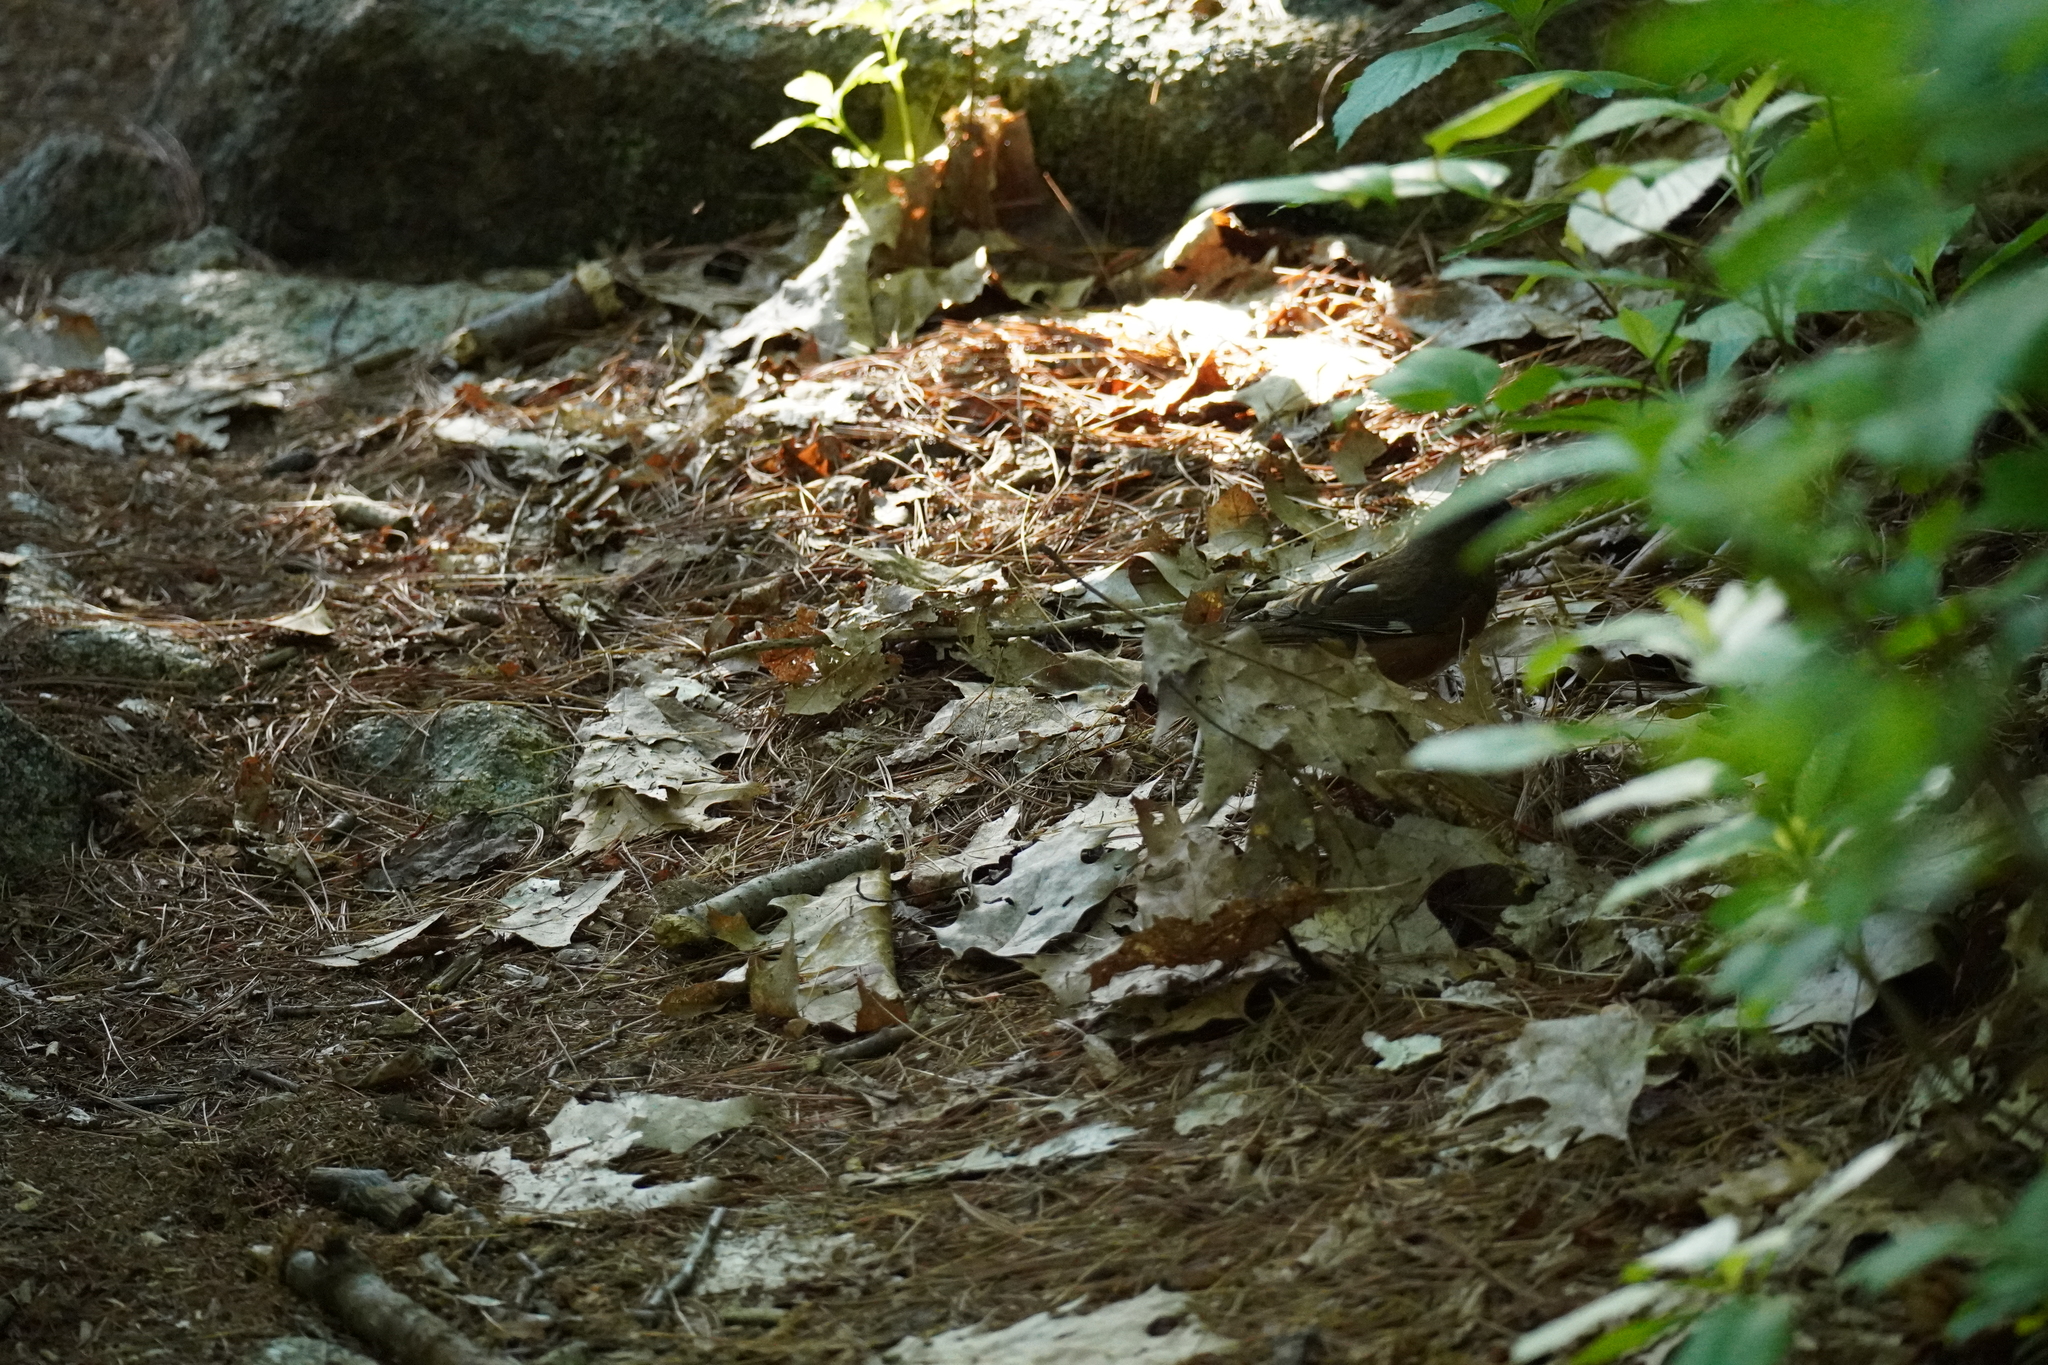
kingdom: Animalia
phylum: Chordata
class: Aves
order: Passeriformes
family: Passerellidae
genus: Pipilo
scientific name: Pipilo erythrophthalmus
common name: Eastern towhee
